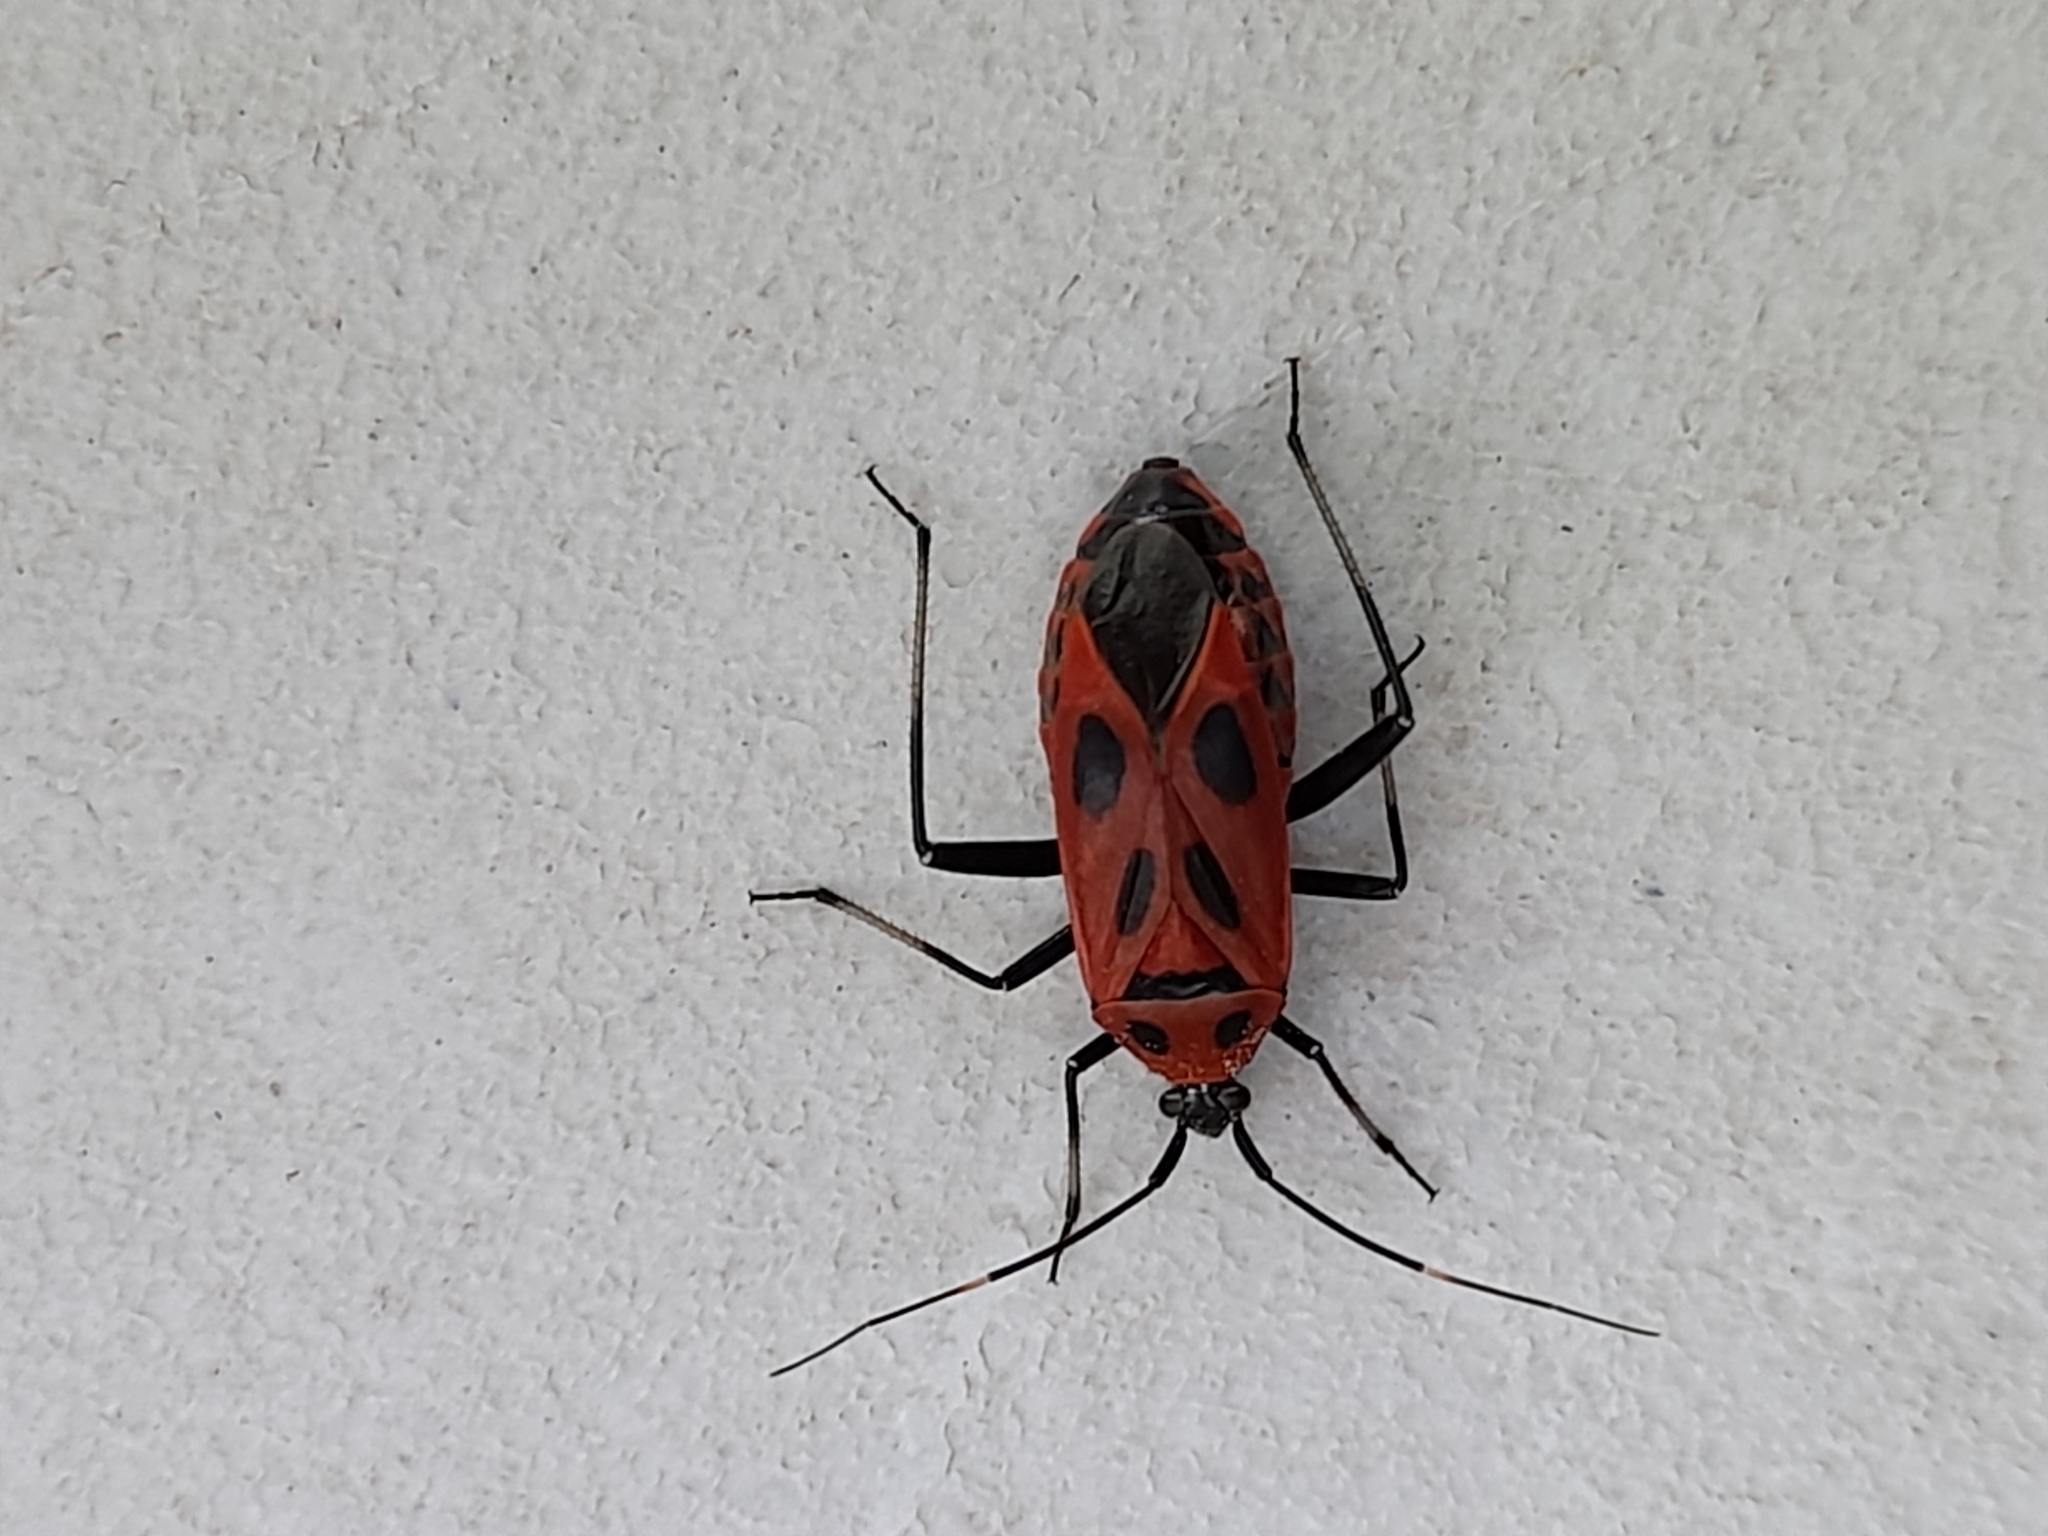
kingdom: Animalia
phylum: Arthropoda
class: Insecta
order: Hemiptera
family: Miridae
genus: Calocoris
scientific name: Calocoris nemoralis
